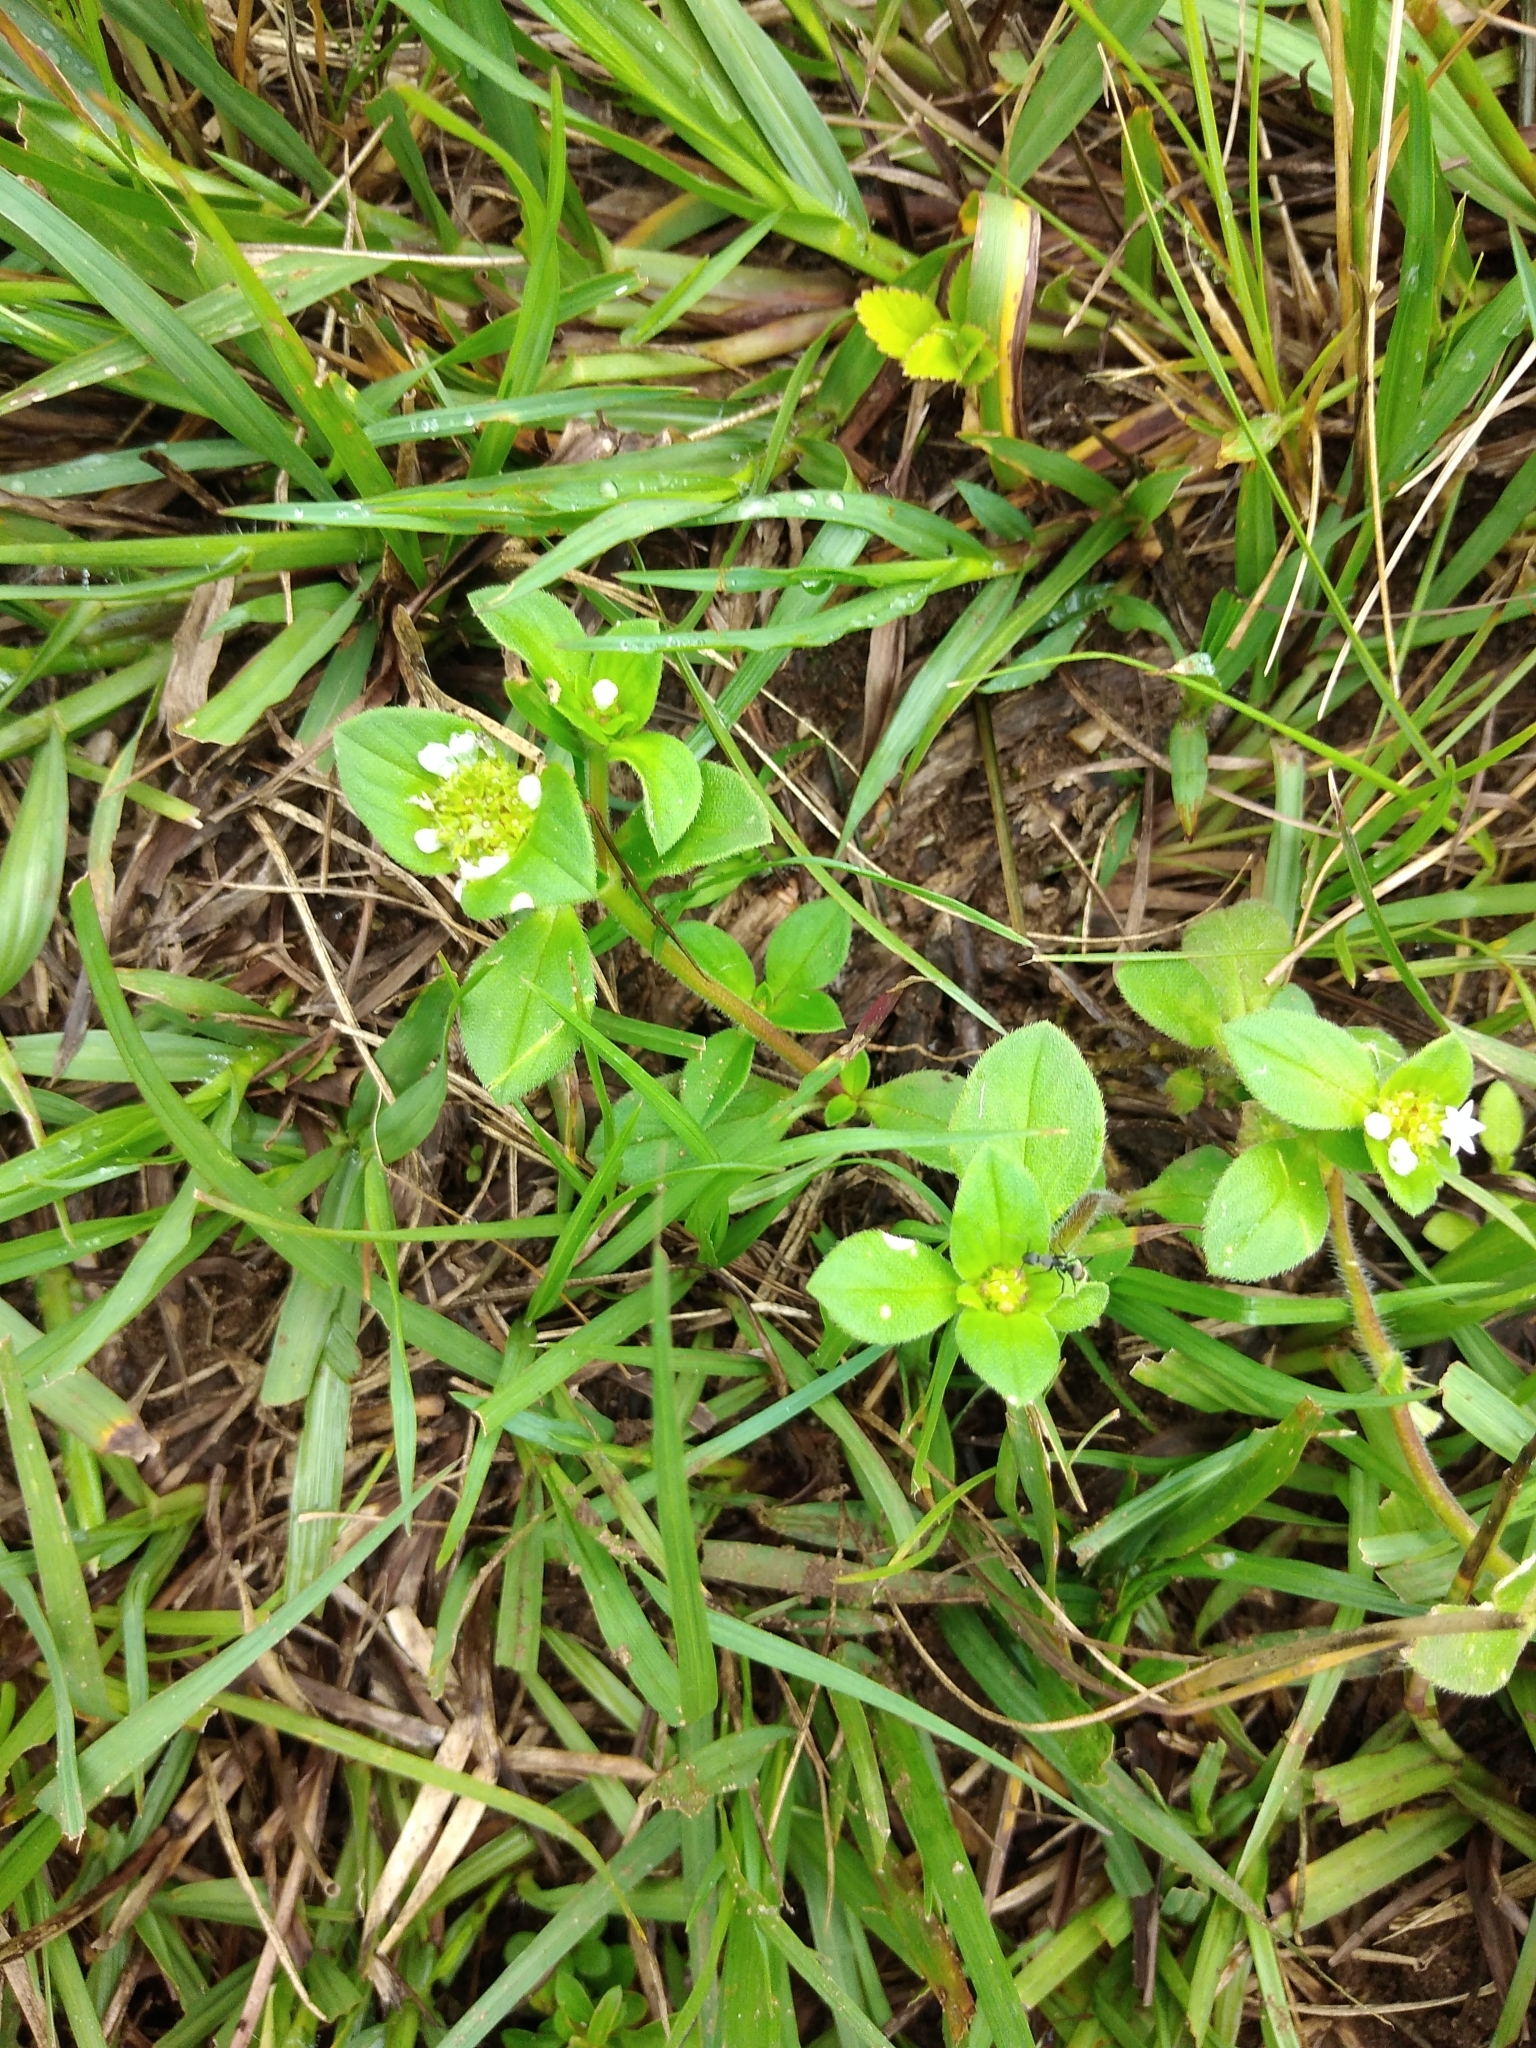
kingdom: Plantae
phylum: Tracheophyta
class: Magnoliopsida
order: Gentianales
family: Rubiaceae
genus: Richardia
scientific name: Richardia brasiliensis
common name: Tropical mexican clover
